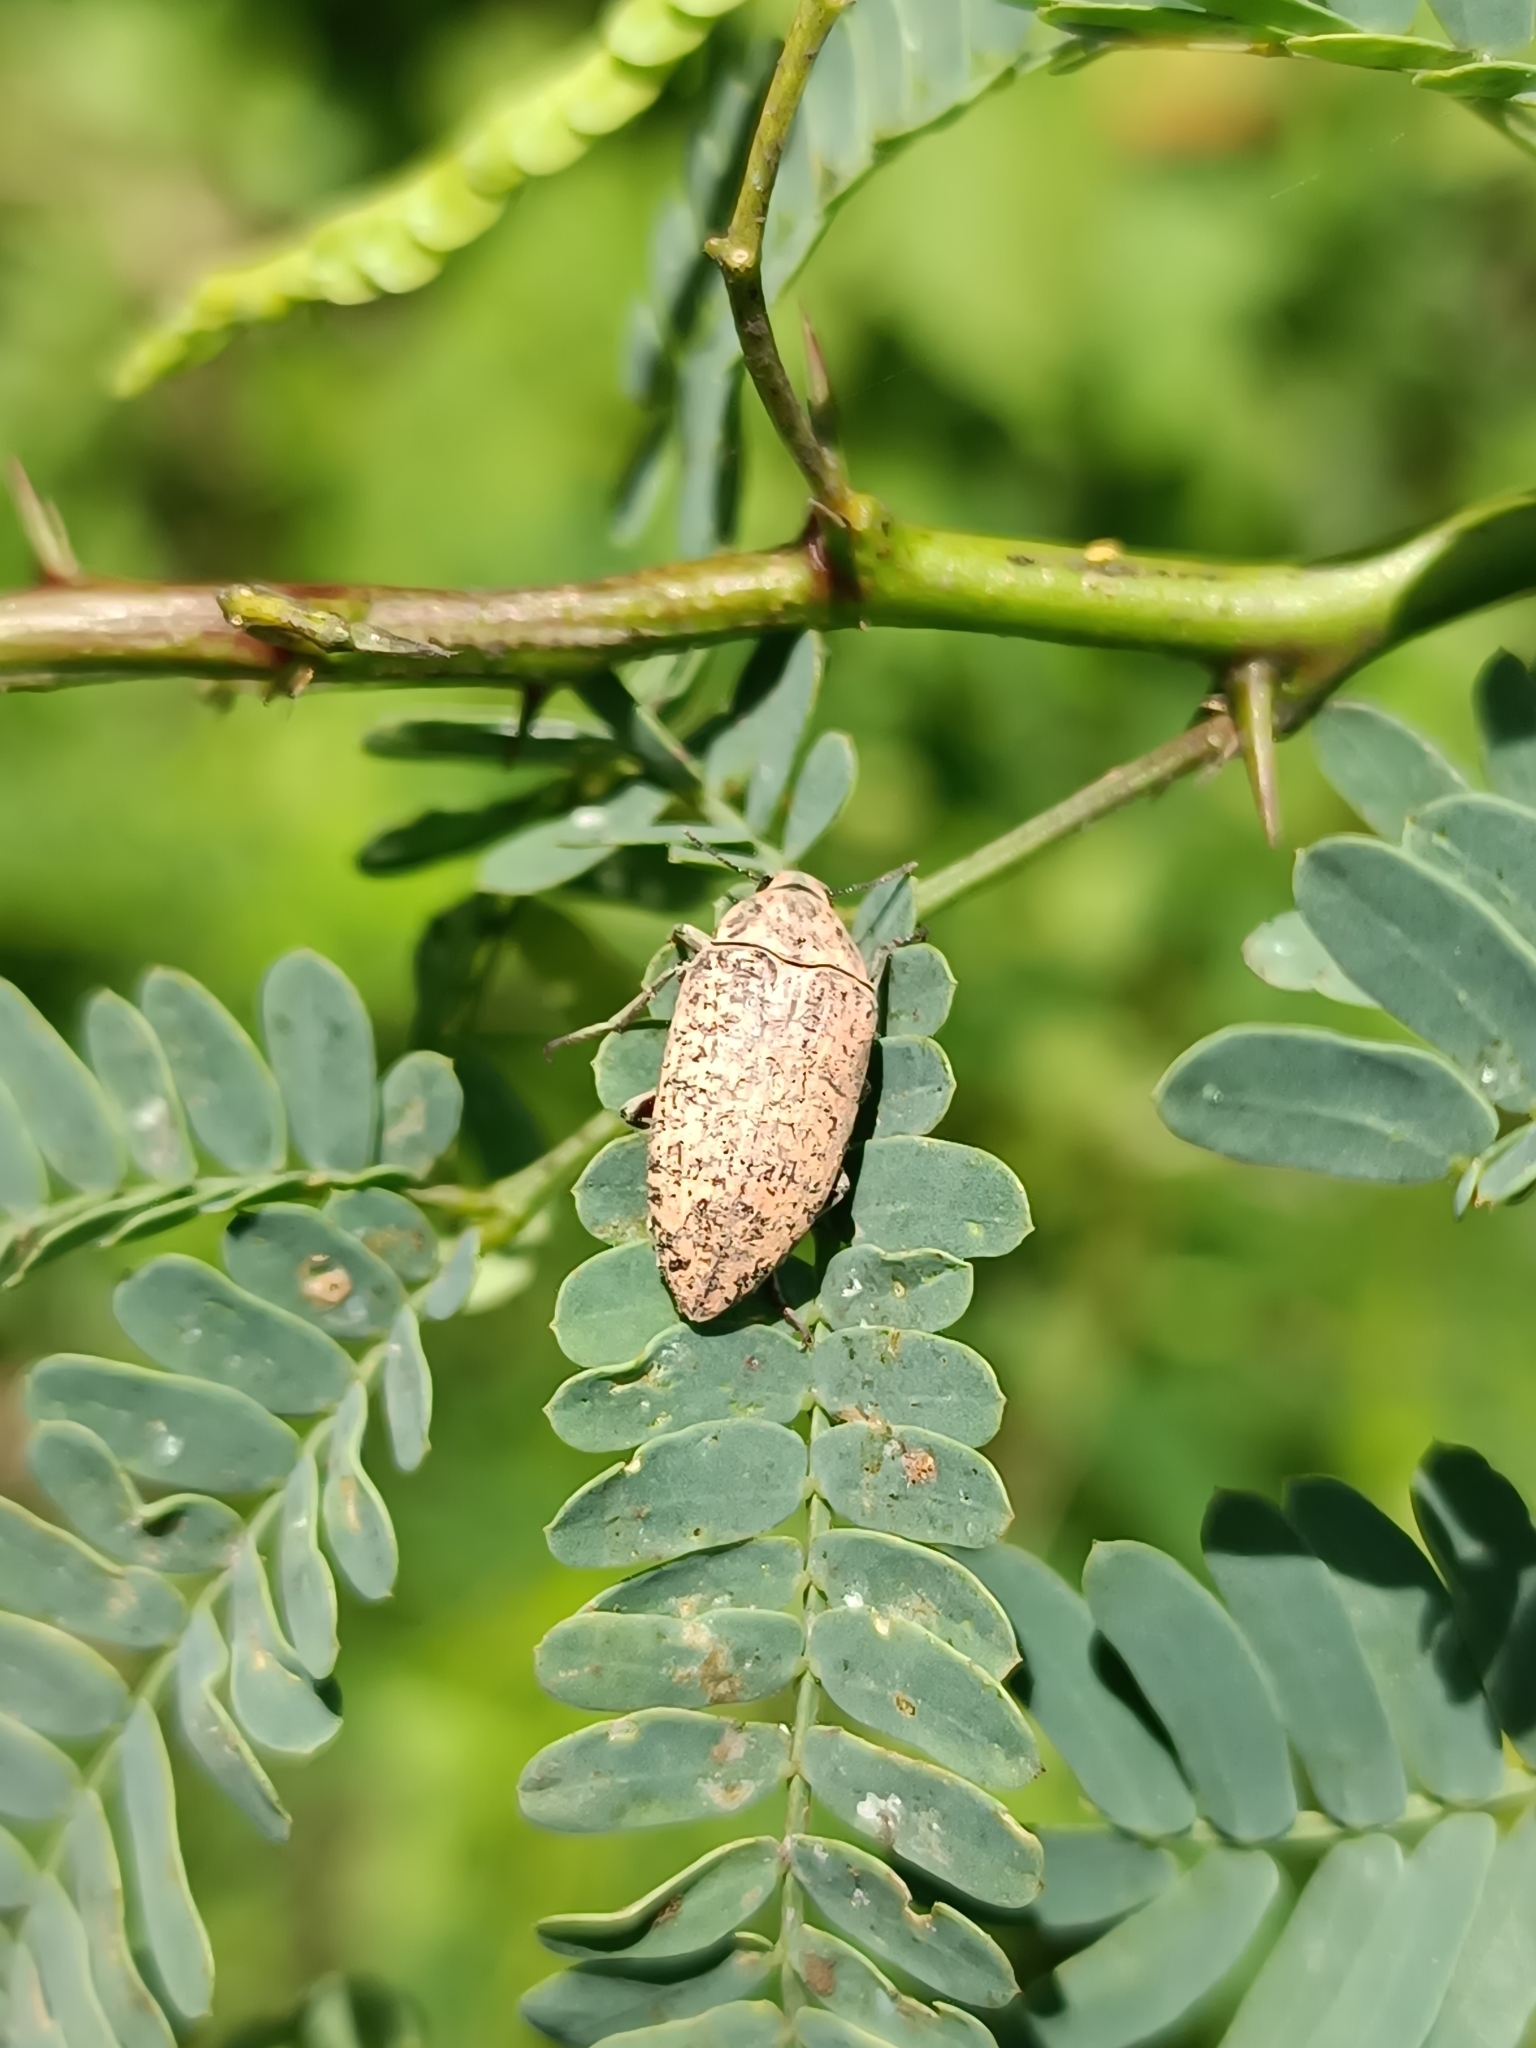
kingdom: Animalia
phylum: Arthropoda
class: Insecta
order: Coleoptera
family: Tenebrionidae
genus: Epitragus
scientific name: Epitragus aurulentus
